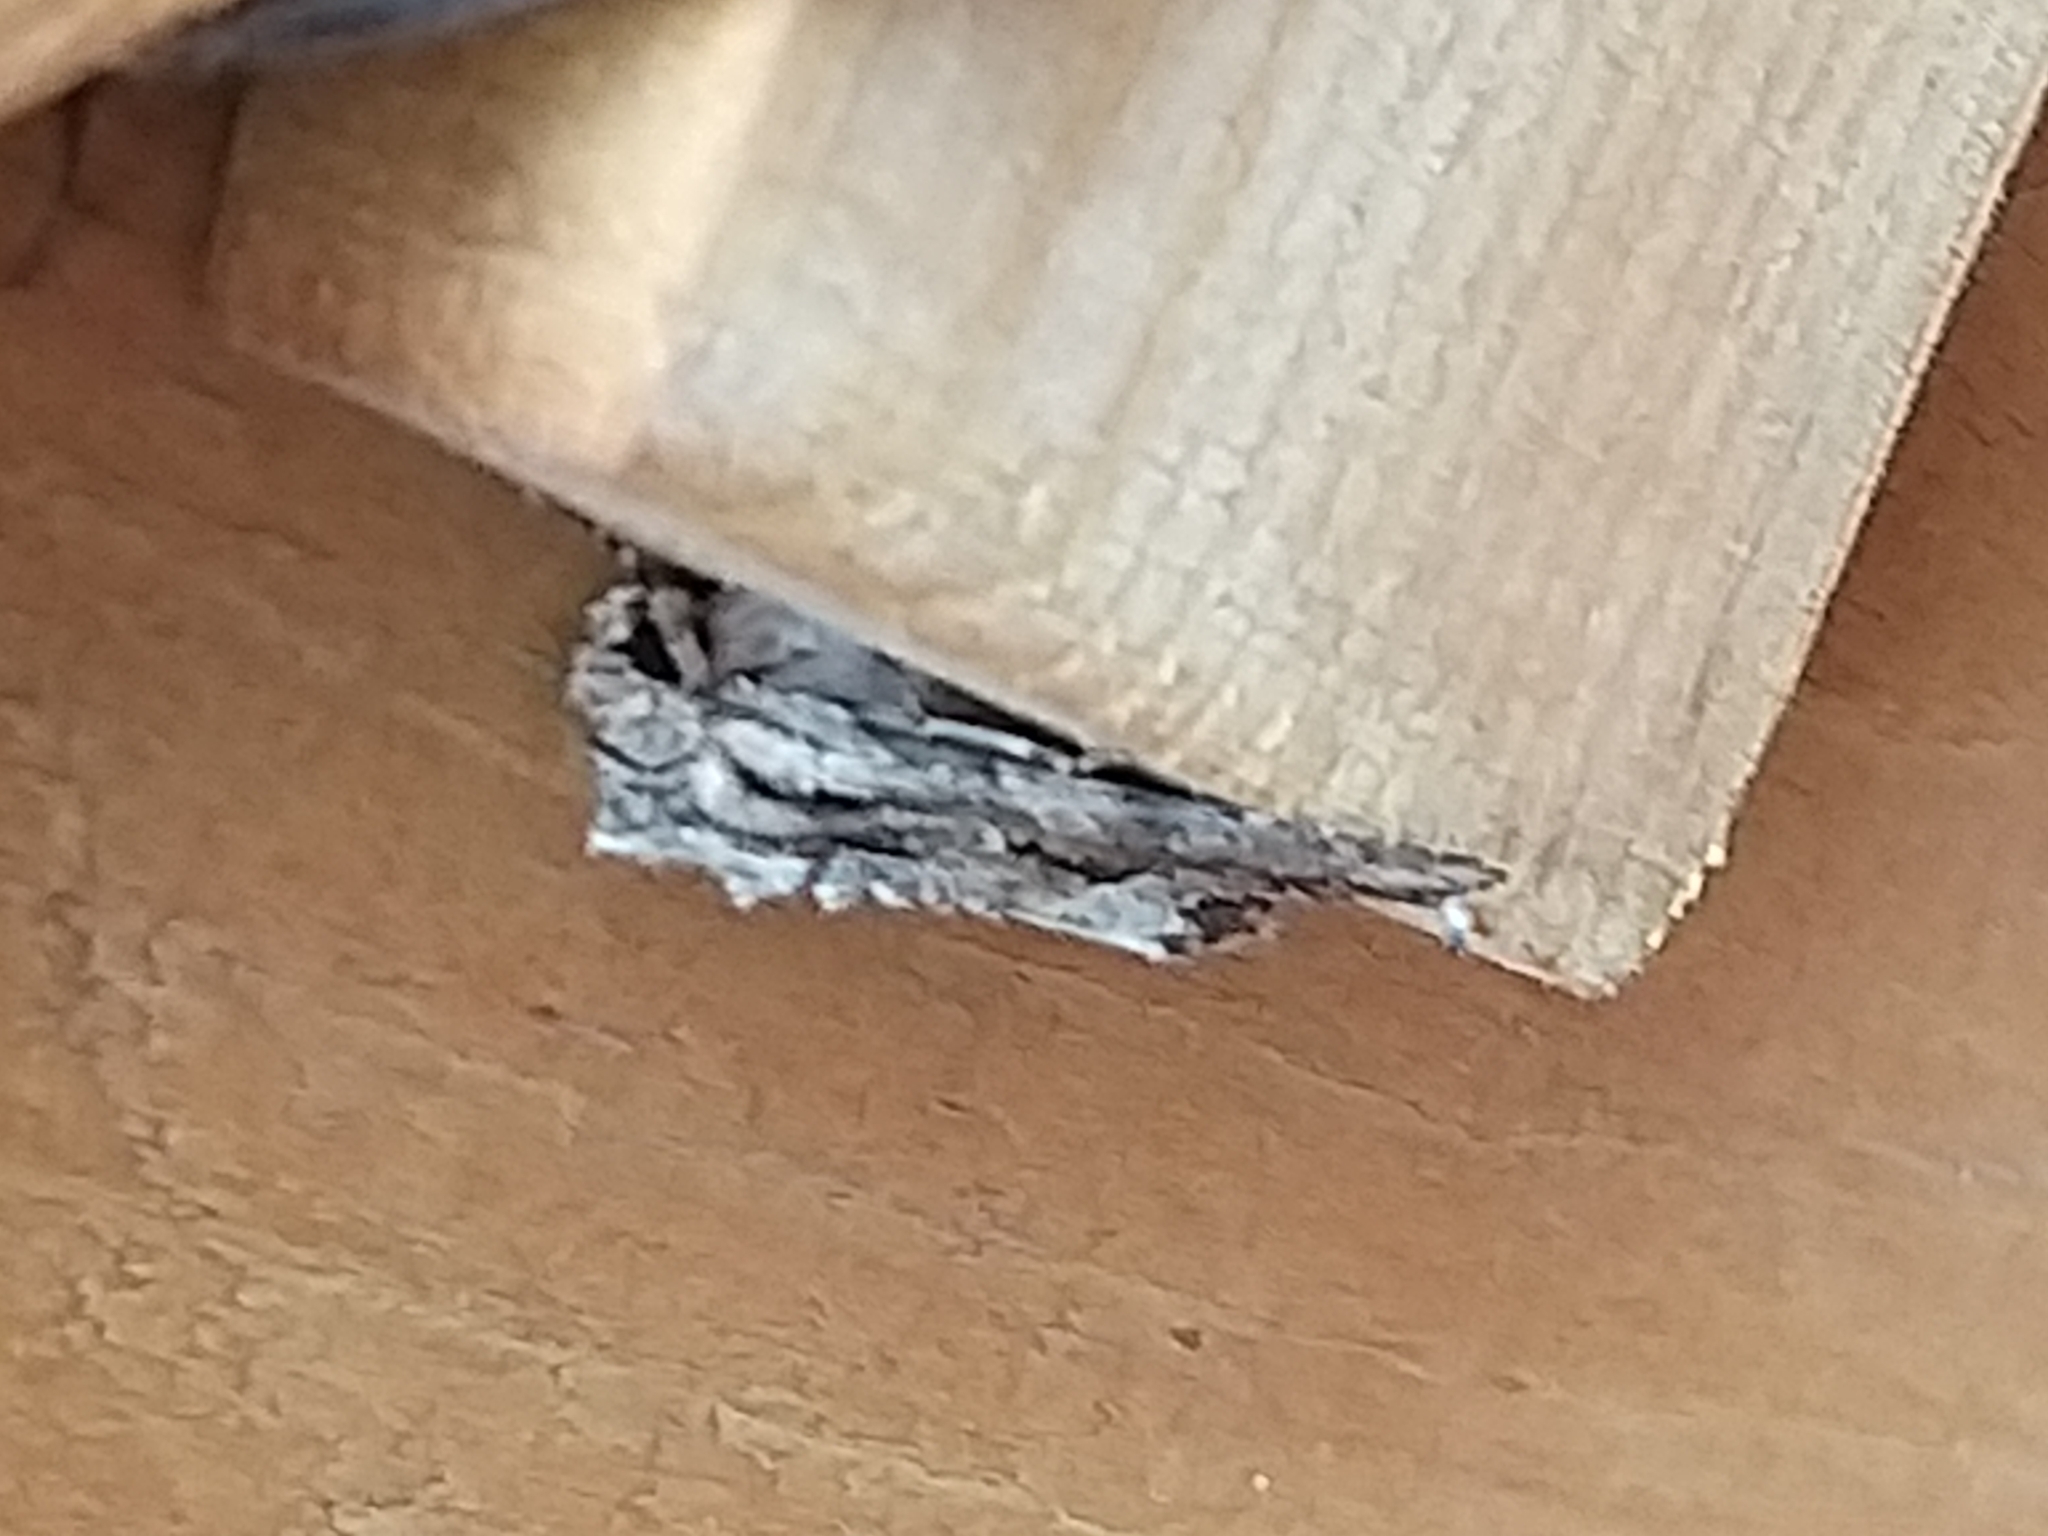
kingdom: Animalia
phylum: Arthropoda
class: Insecta
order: Lepidoptera
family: Noctuidae
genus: Apamea
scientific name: Apamea monoglypha
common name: Dark arches
